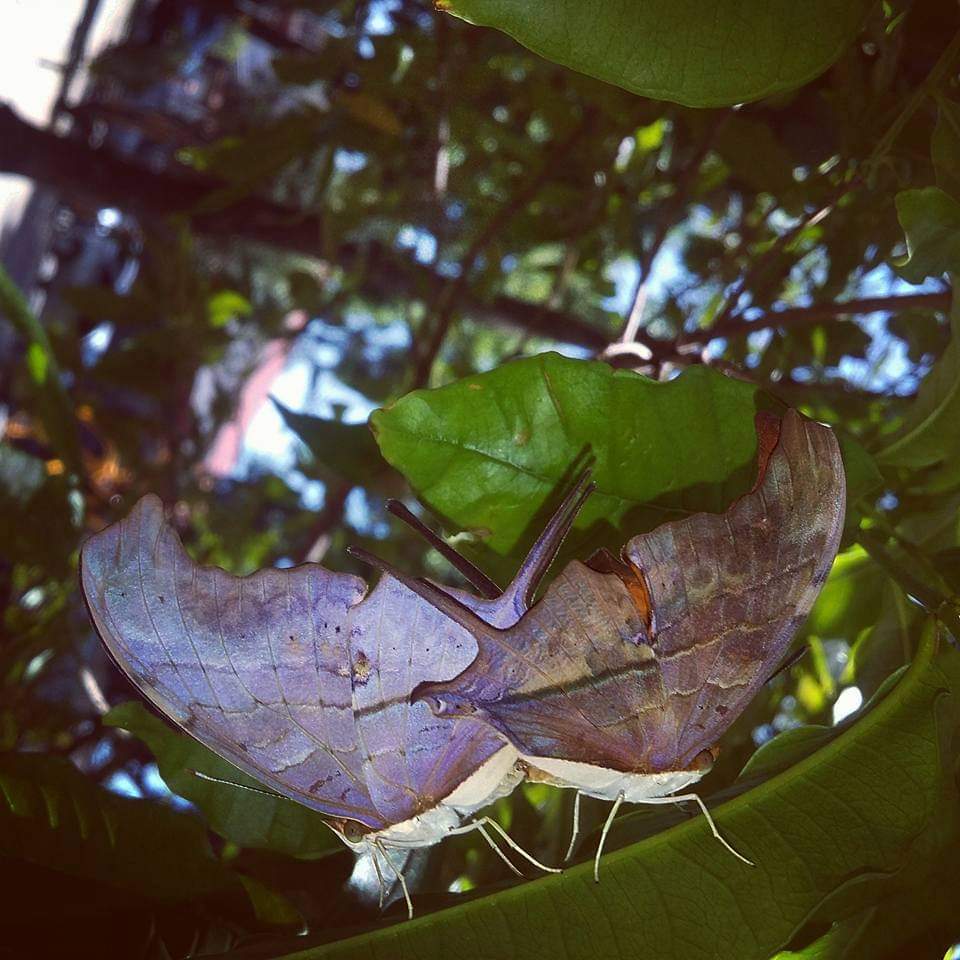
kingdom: Animalia
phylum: Arthropoda
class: Insecta
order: Lepidoptera
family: Nymphalidae
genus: Marpesia
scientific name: Marpesia petreus
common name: Red dagger wing
